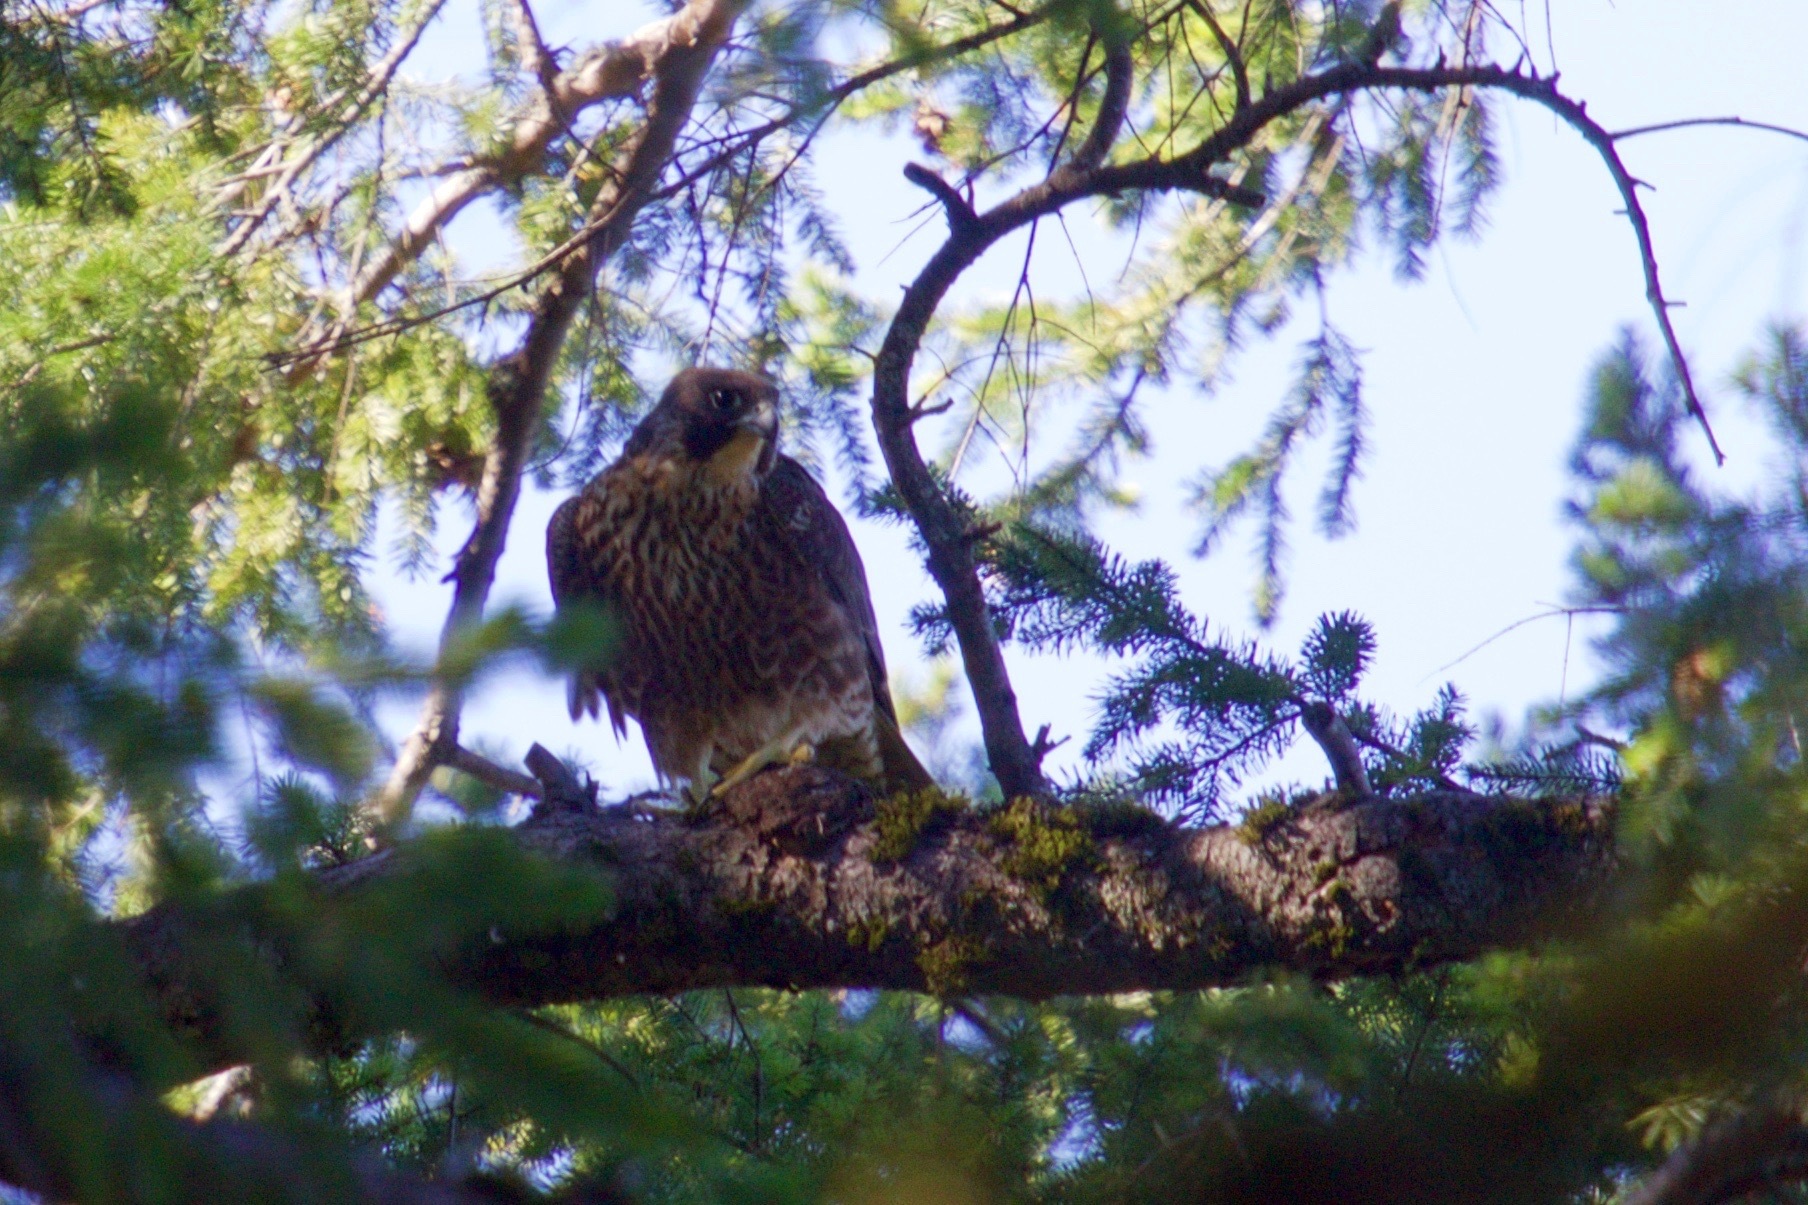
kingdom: Animalia
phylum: Chordata
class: Aves
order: Falconiformes
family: Falconidae
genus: Falco
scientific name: Falco peregrinus
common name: Peregrine falcon
